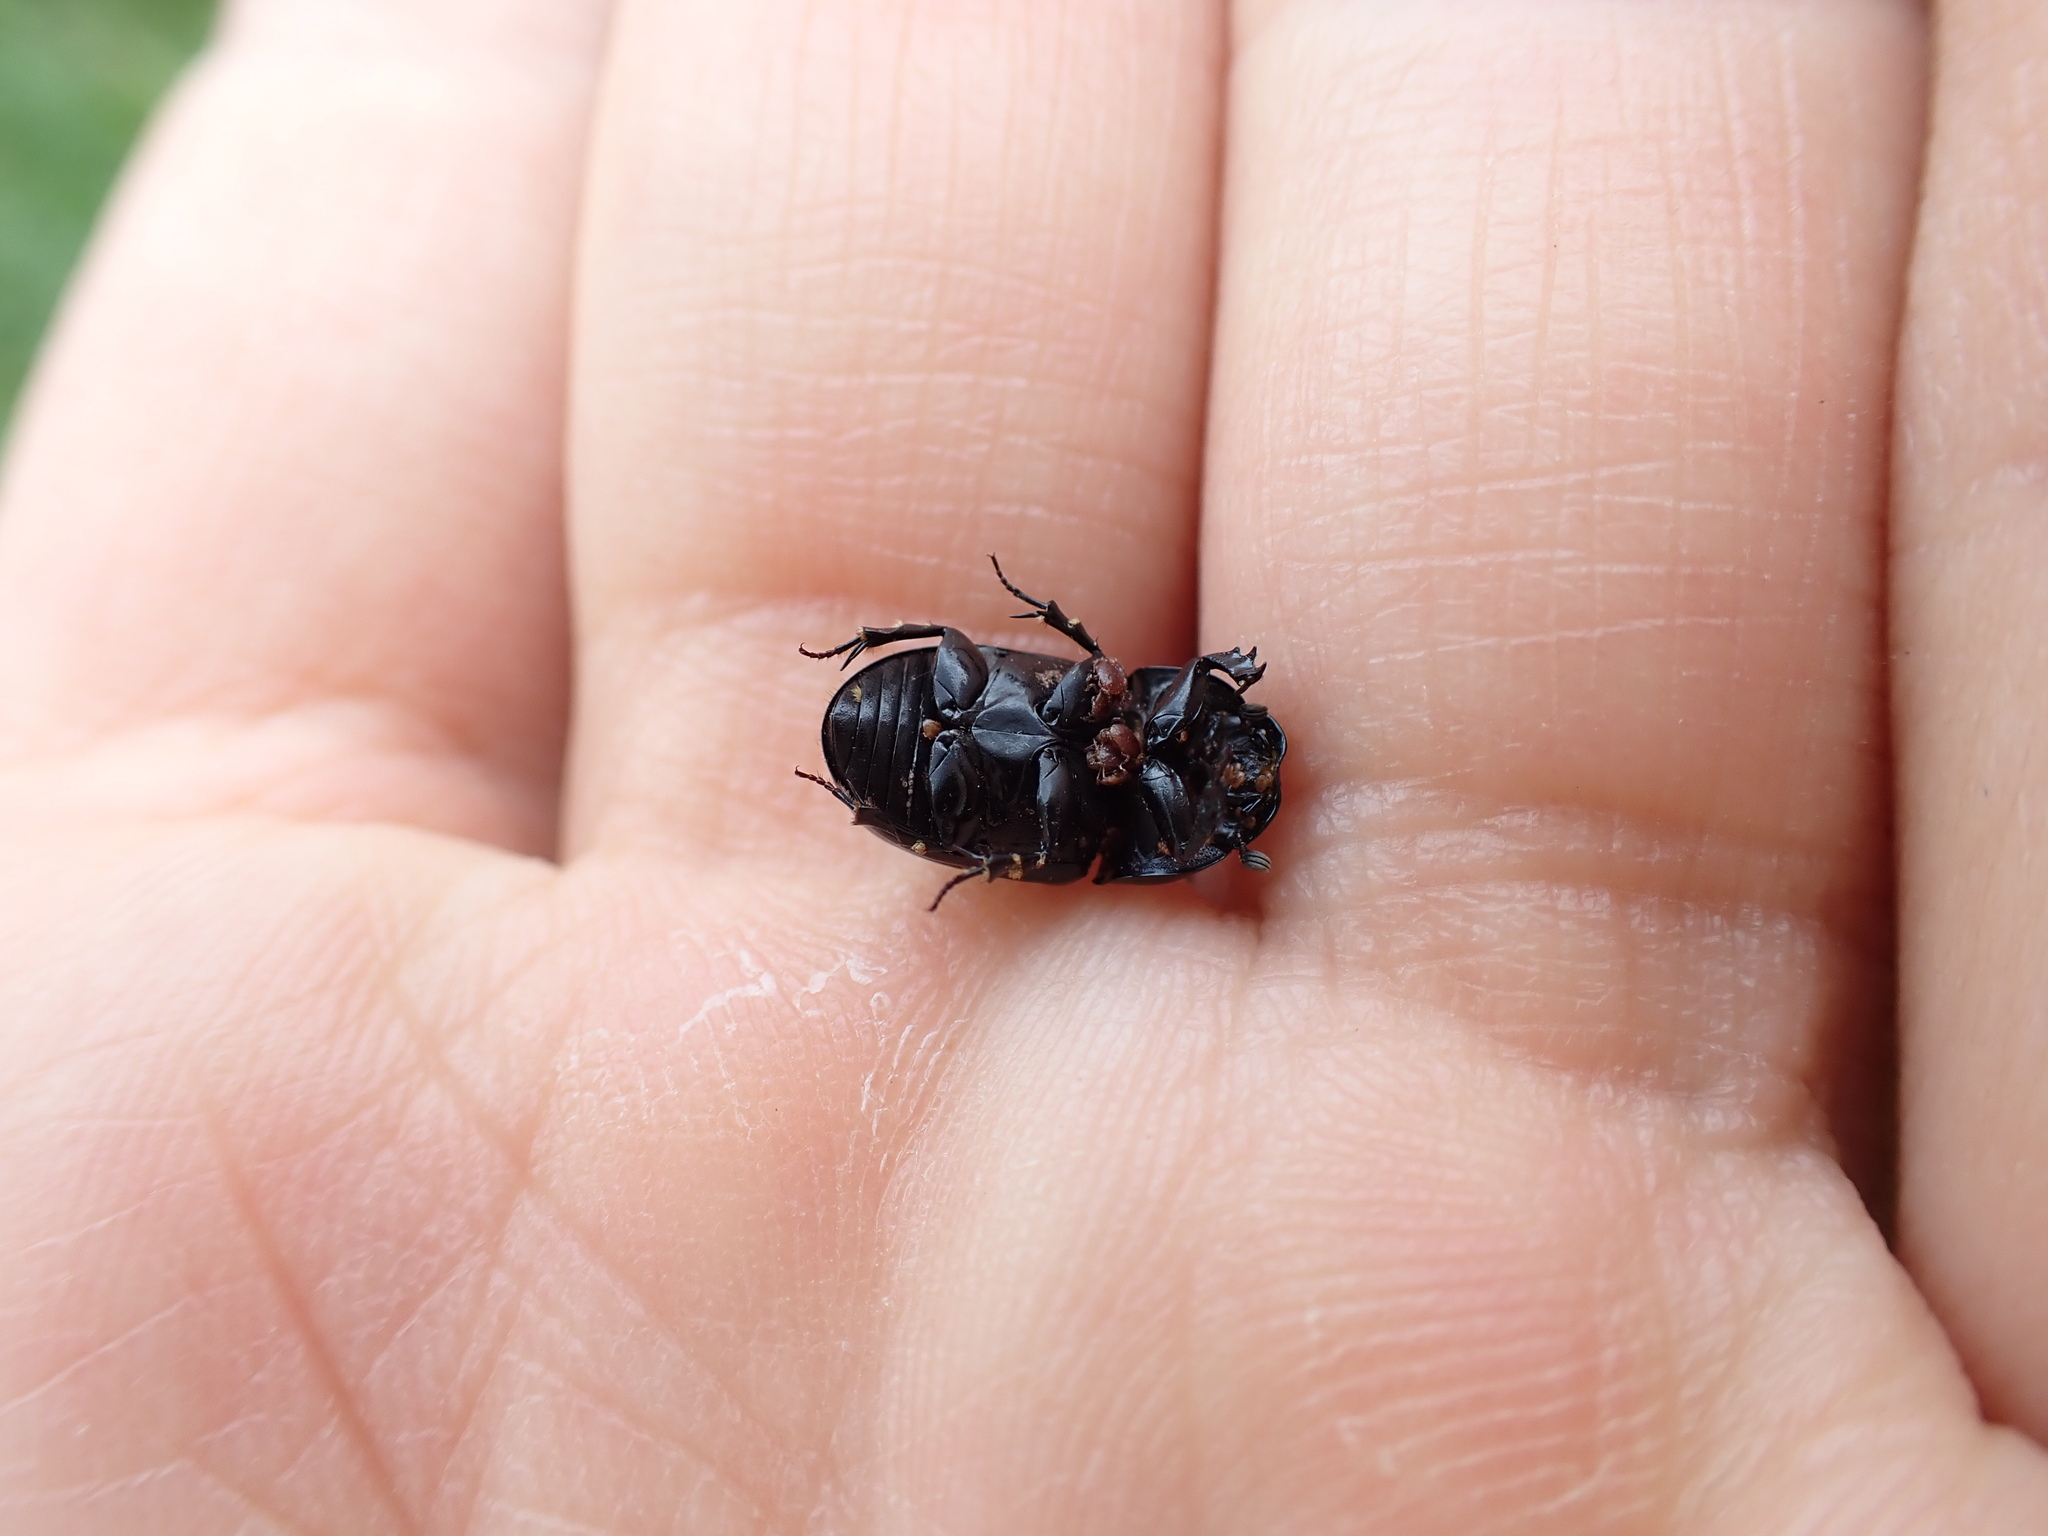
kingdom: Animalia
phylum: Arthropoda
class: Insecta
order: Coleoptera
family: Scarabaeidae
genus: Teuchestes
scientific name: Teuchestes fossor
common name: Digger small dung beetle
